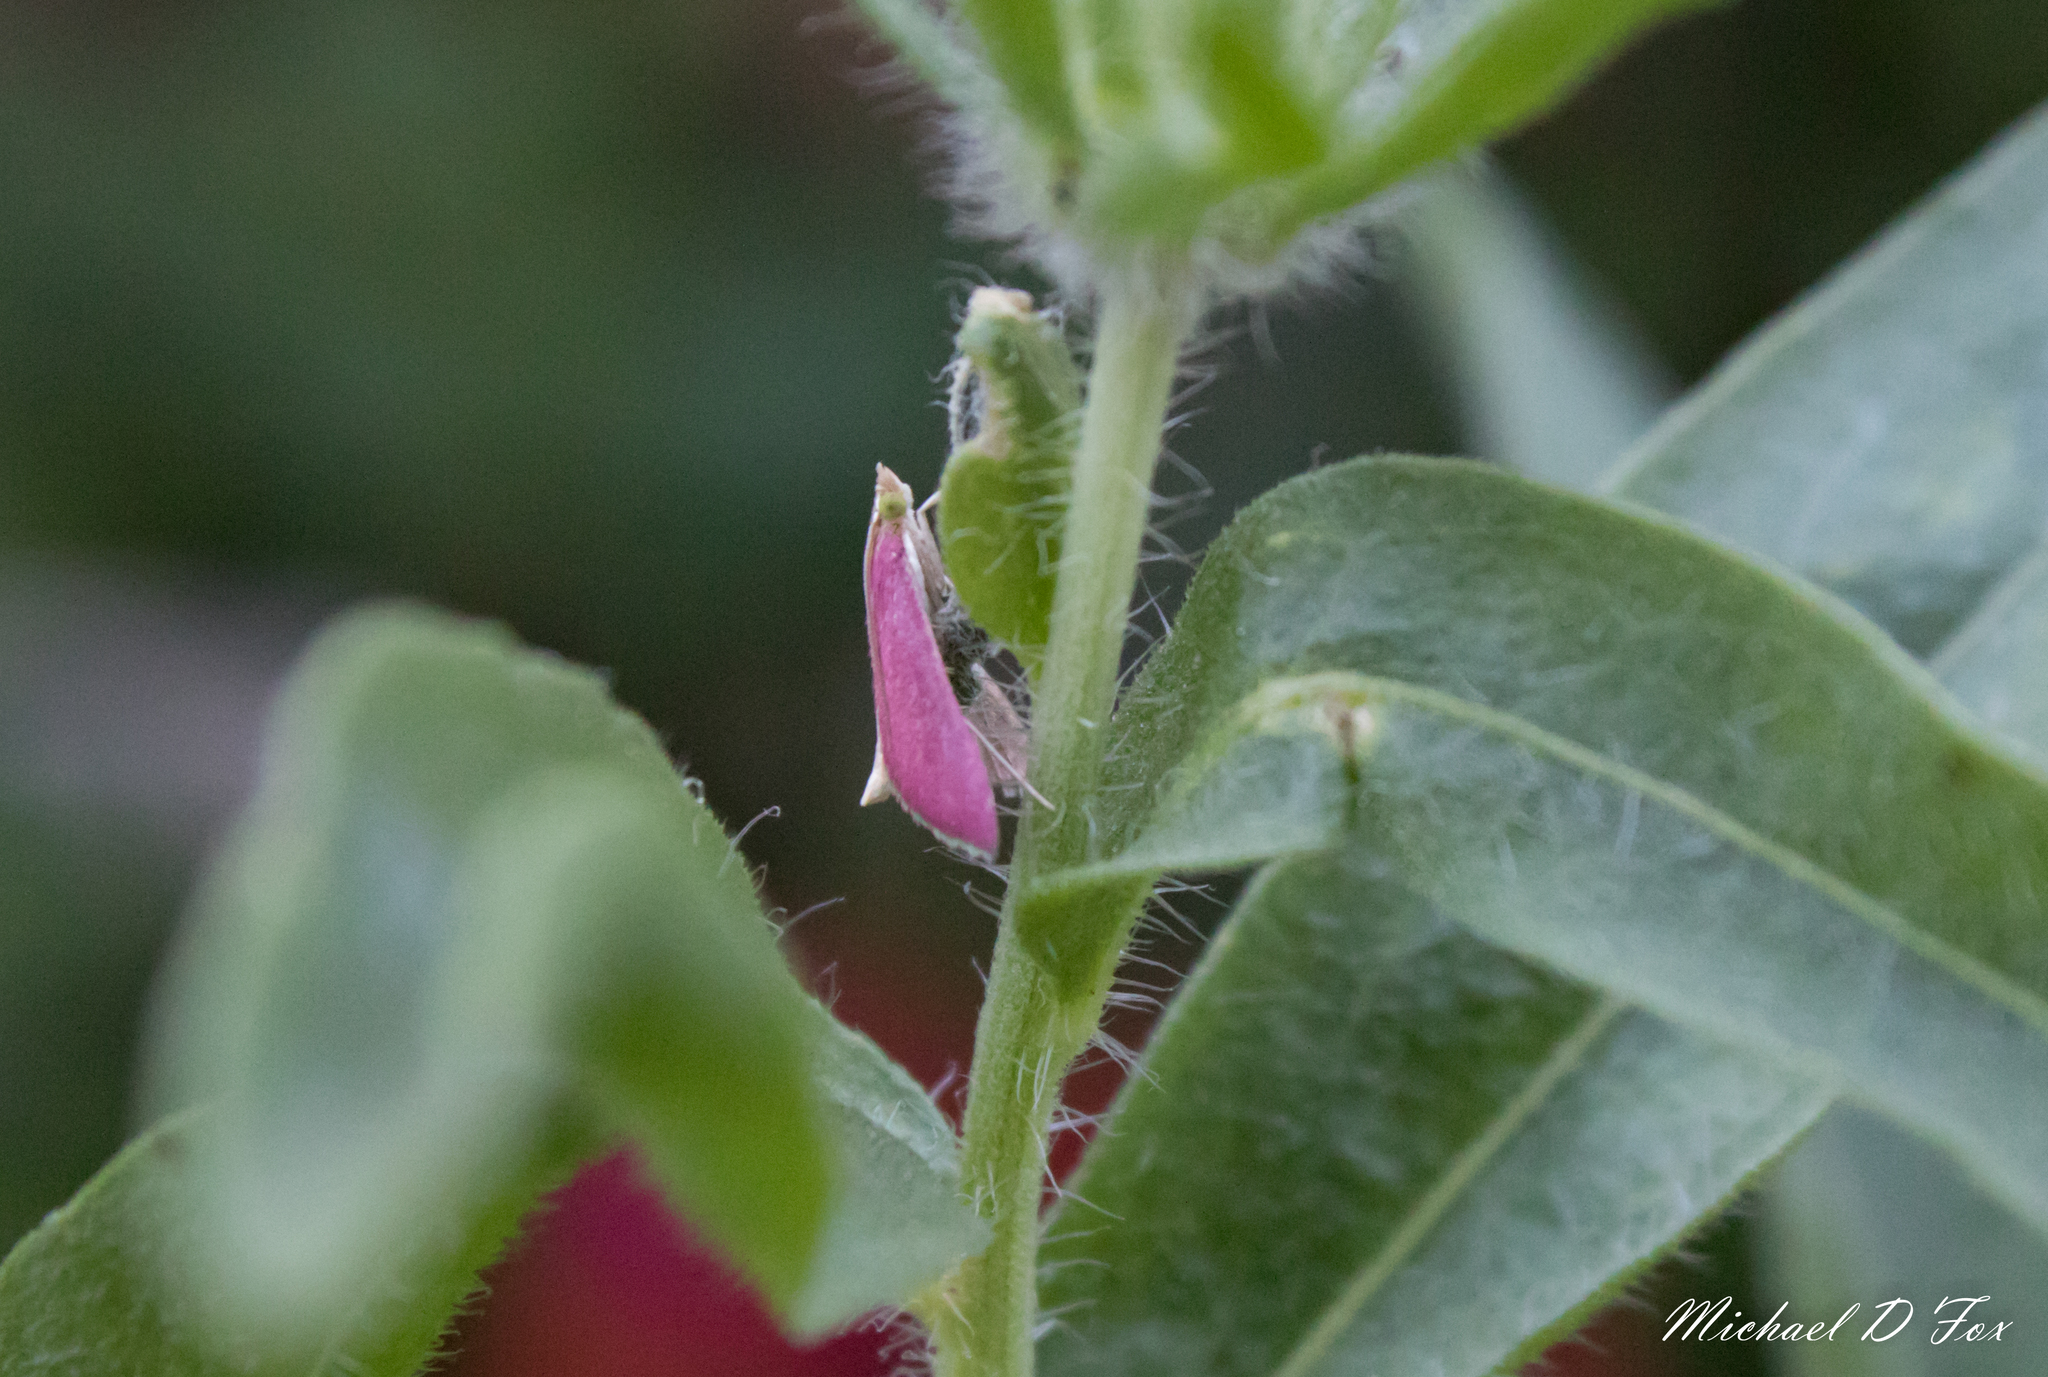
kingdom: Animalia
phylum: Arthropoda
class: Insecta
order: Lepidoptera
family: Crambidae
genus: Pyrausta
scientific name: Pyrausta inornatalis
